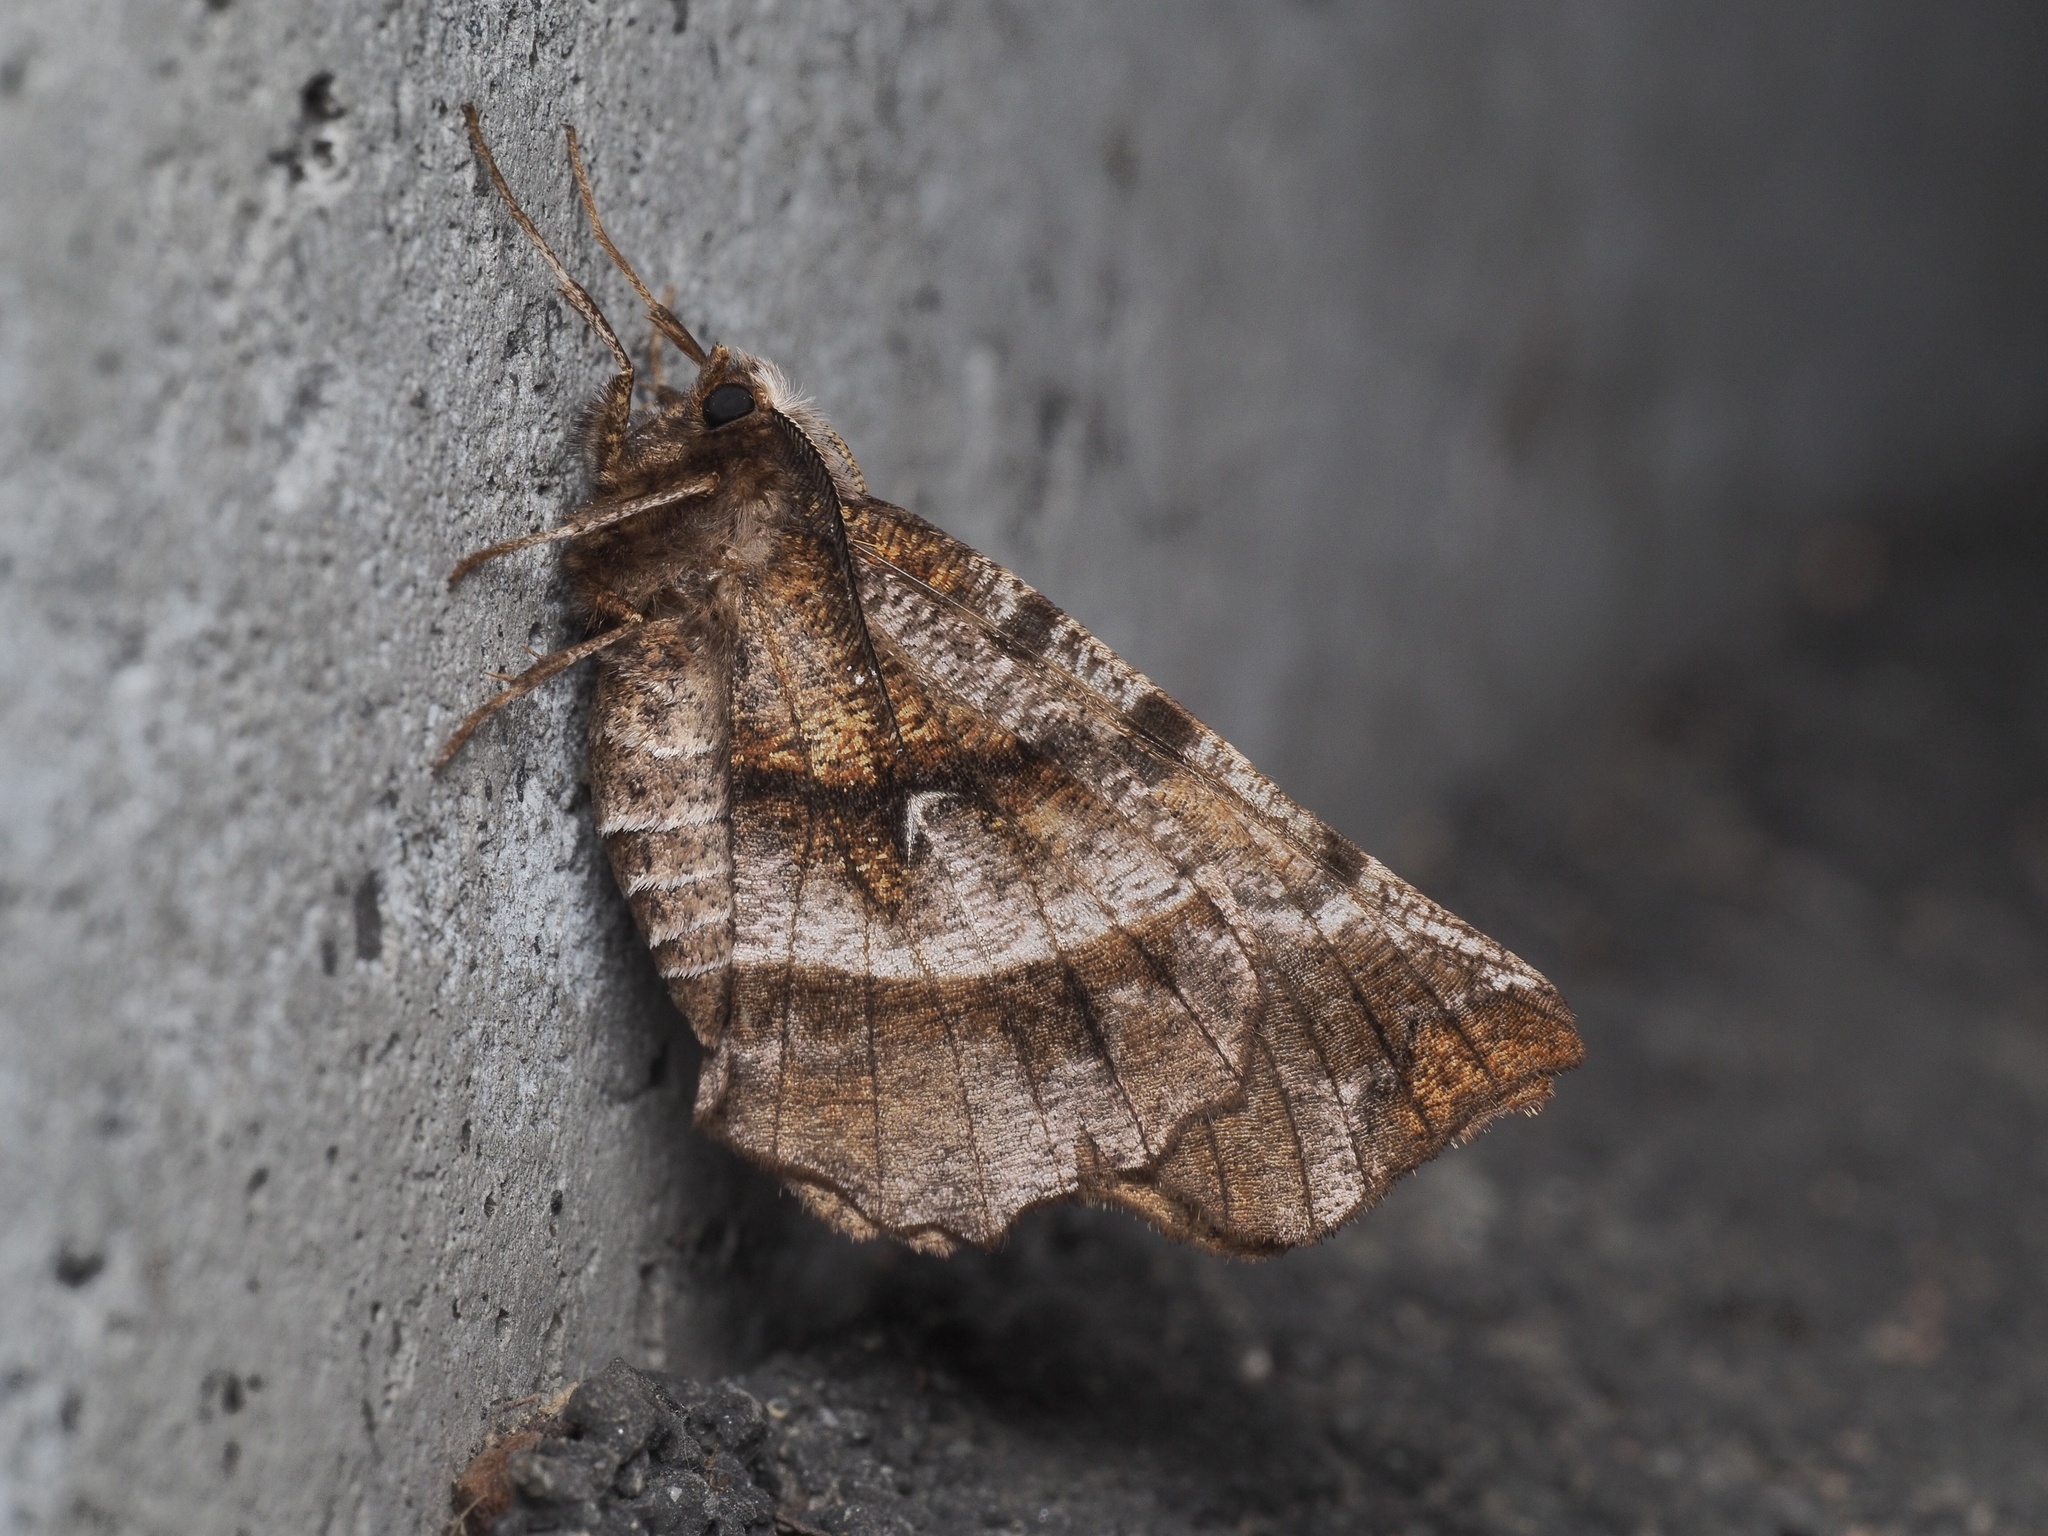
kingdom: Animalia
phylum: Arthropoda
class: Insecta
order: Lepidoptera
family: Geometridae
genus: Selenia
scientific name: Selenia dentaria
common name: Early thorn
